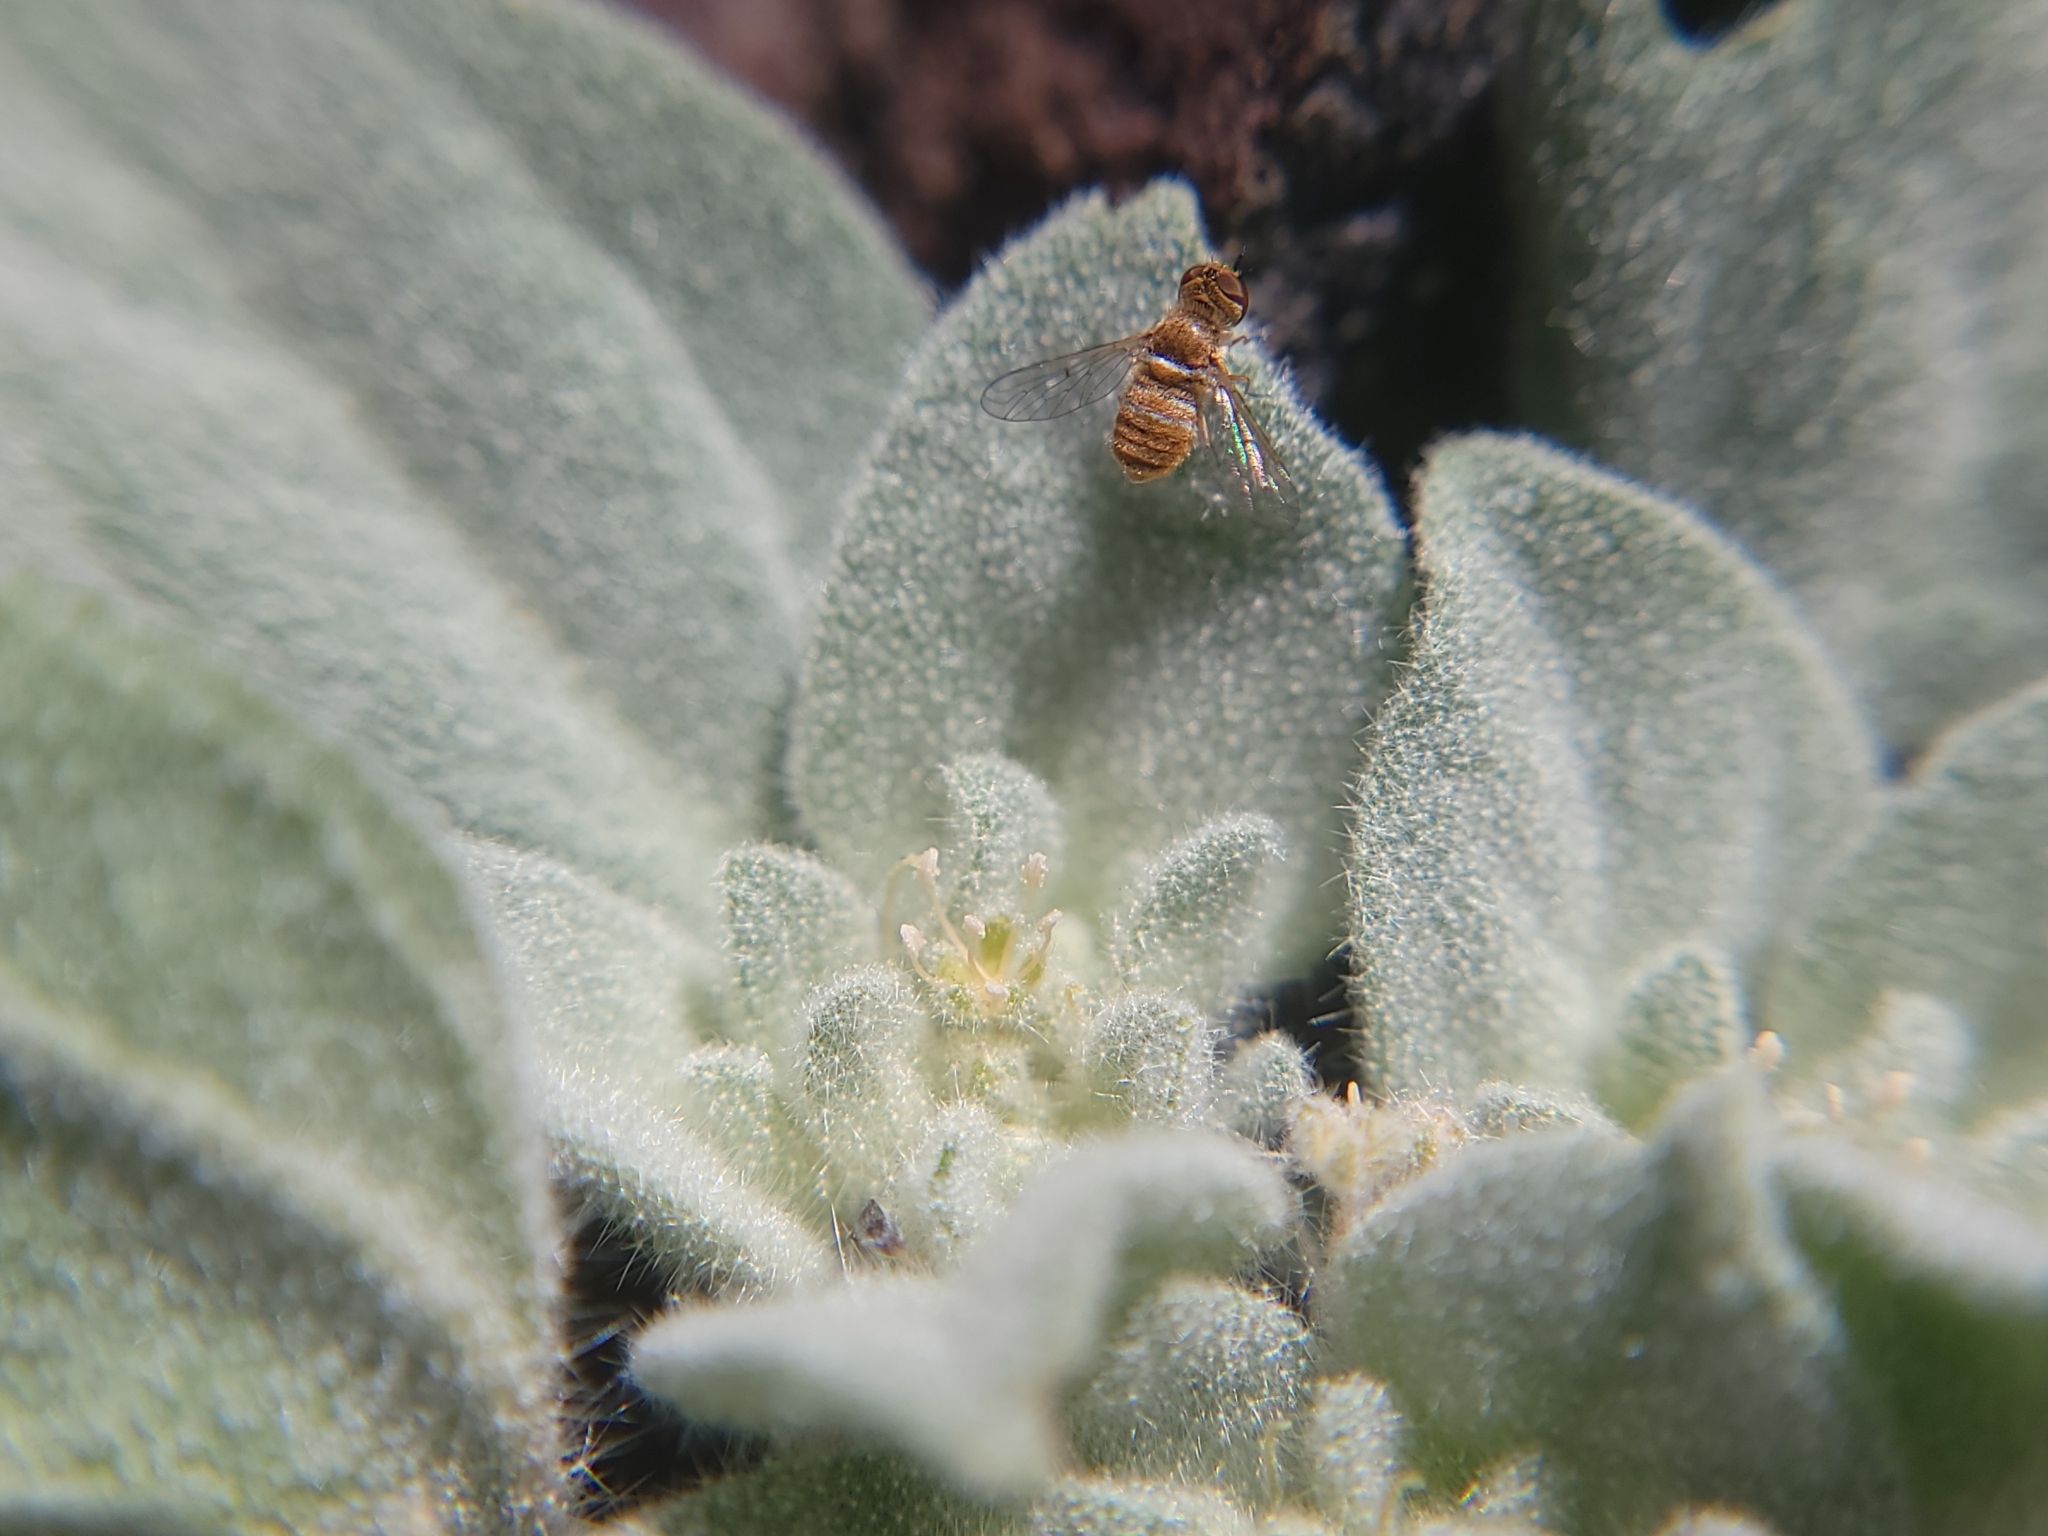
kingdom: Plantae
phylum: Tracheophyta
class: Magnoliopsida
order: Malpighiales
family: Euphorbiaceae
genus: Croton
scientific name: Croton setiger
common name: Dove weed
